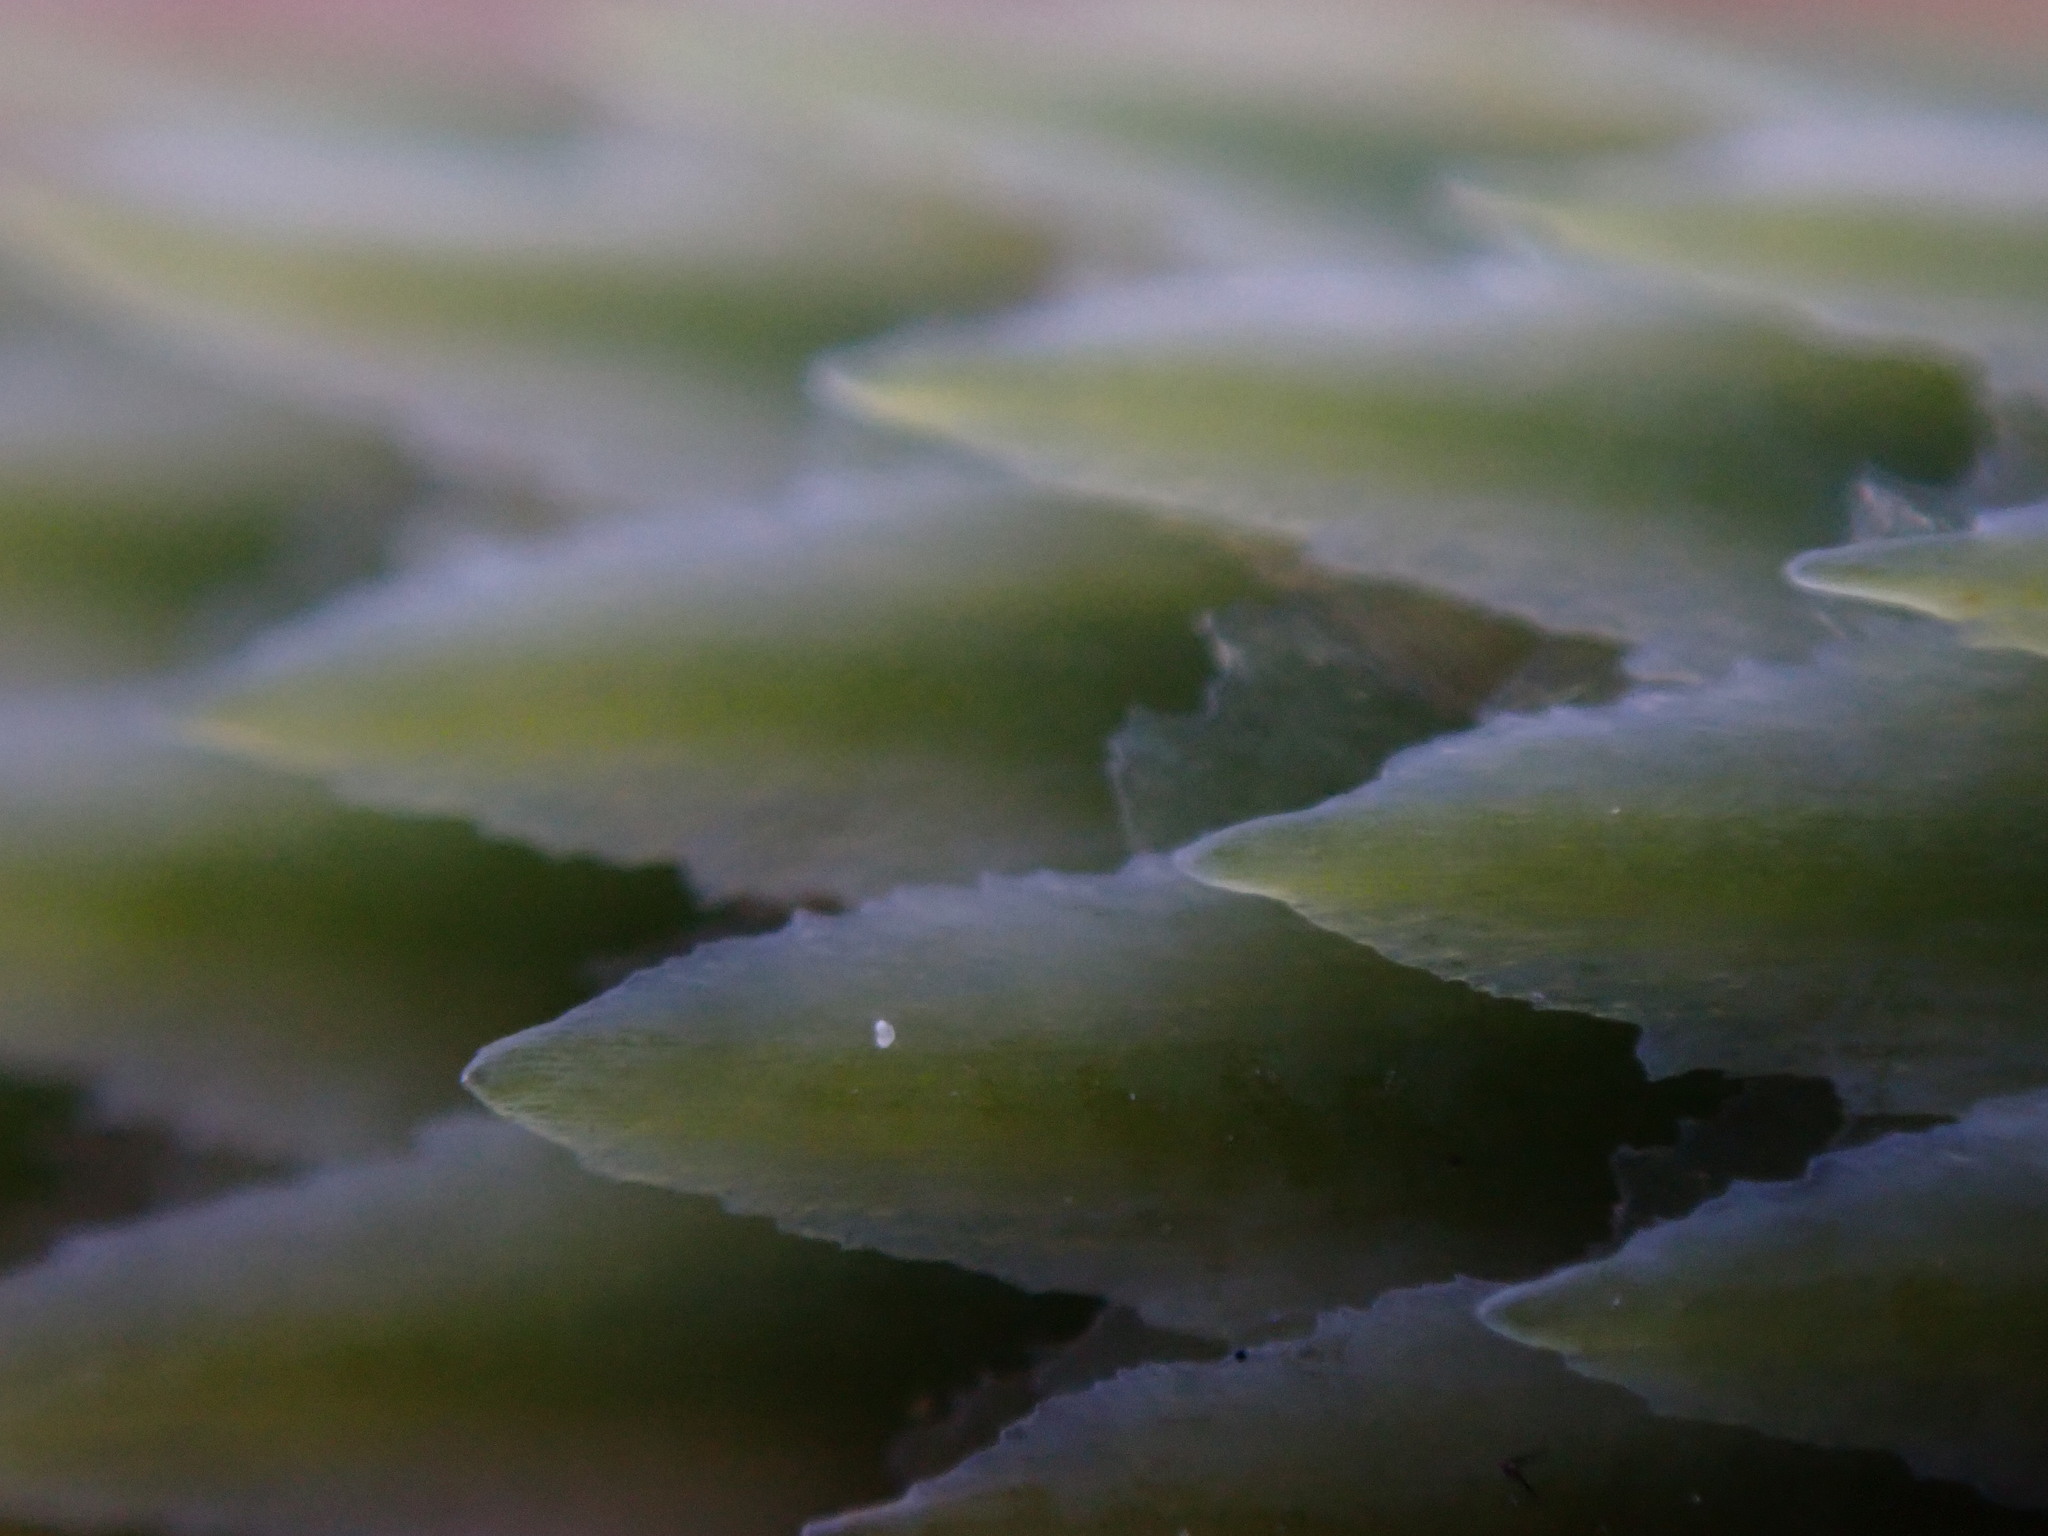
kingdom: Plantae
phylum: Tracheophyta
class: Pinopsida
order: Pinales
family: Pinaceae
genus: Picea
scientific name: Picea sitchensis
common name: Sitka spruce
